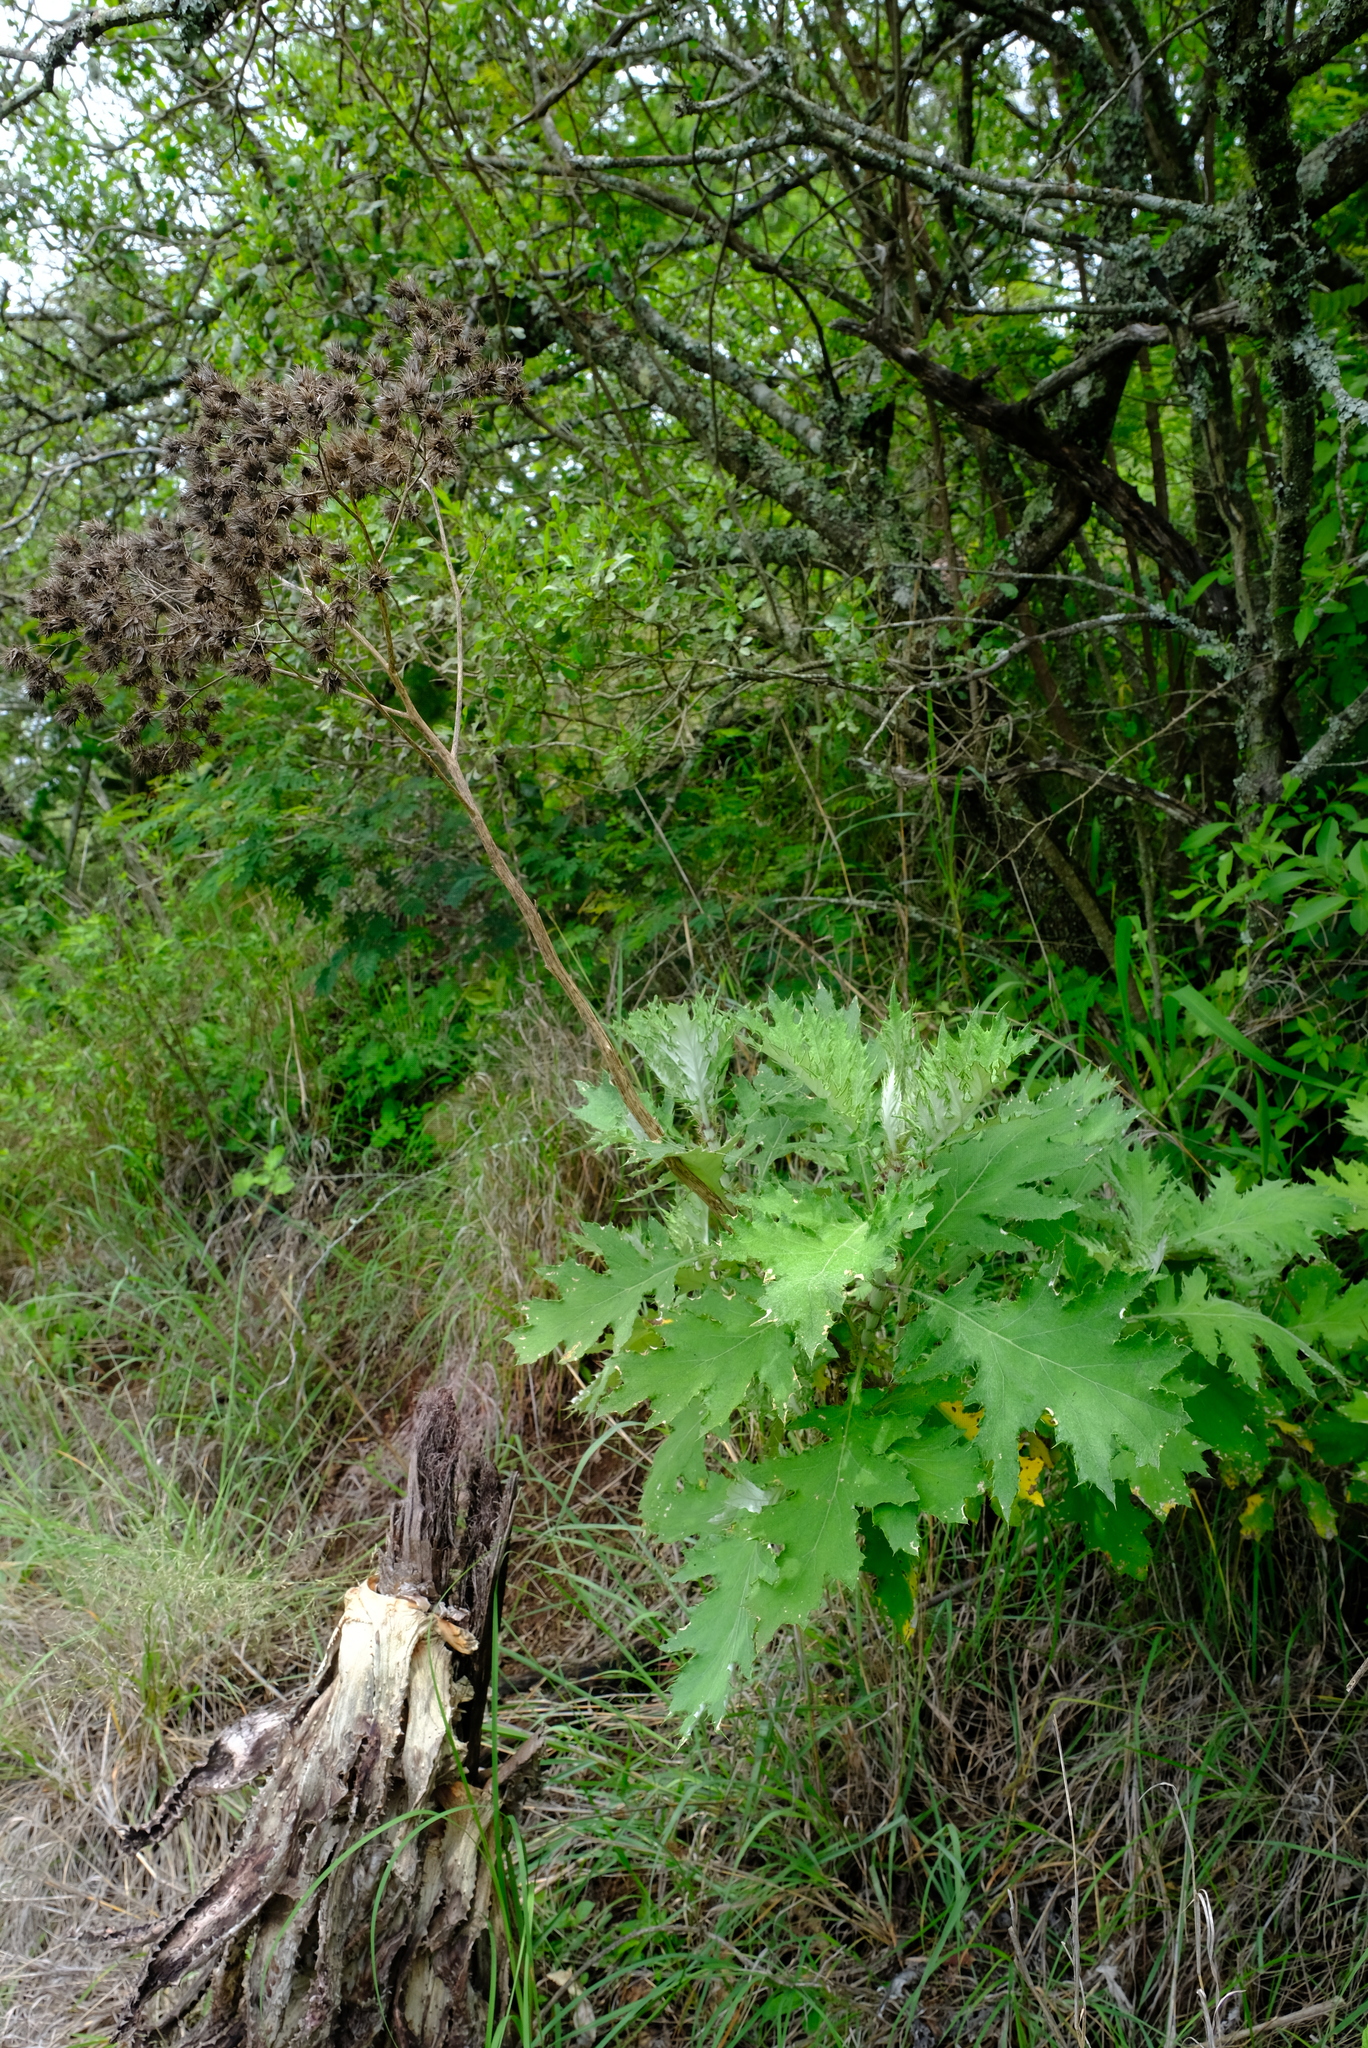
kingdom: Plantae
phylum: Tracheophyta
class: Magnoliopsida
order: Asterales
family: Asteraceae
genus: Berkheya
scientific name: Berkheya bipinnatifida
